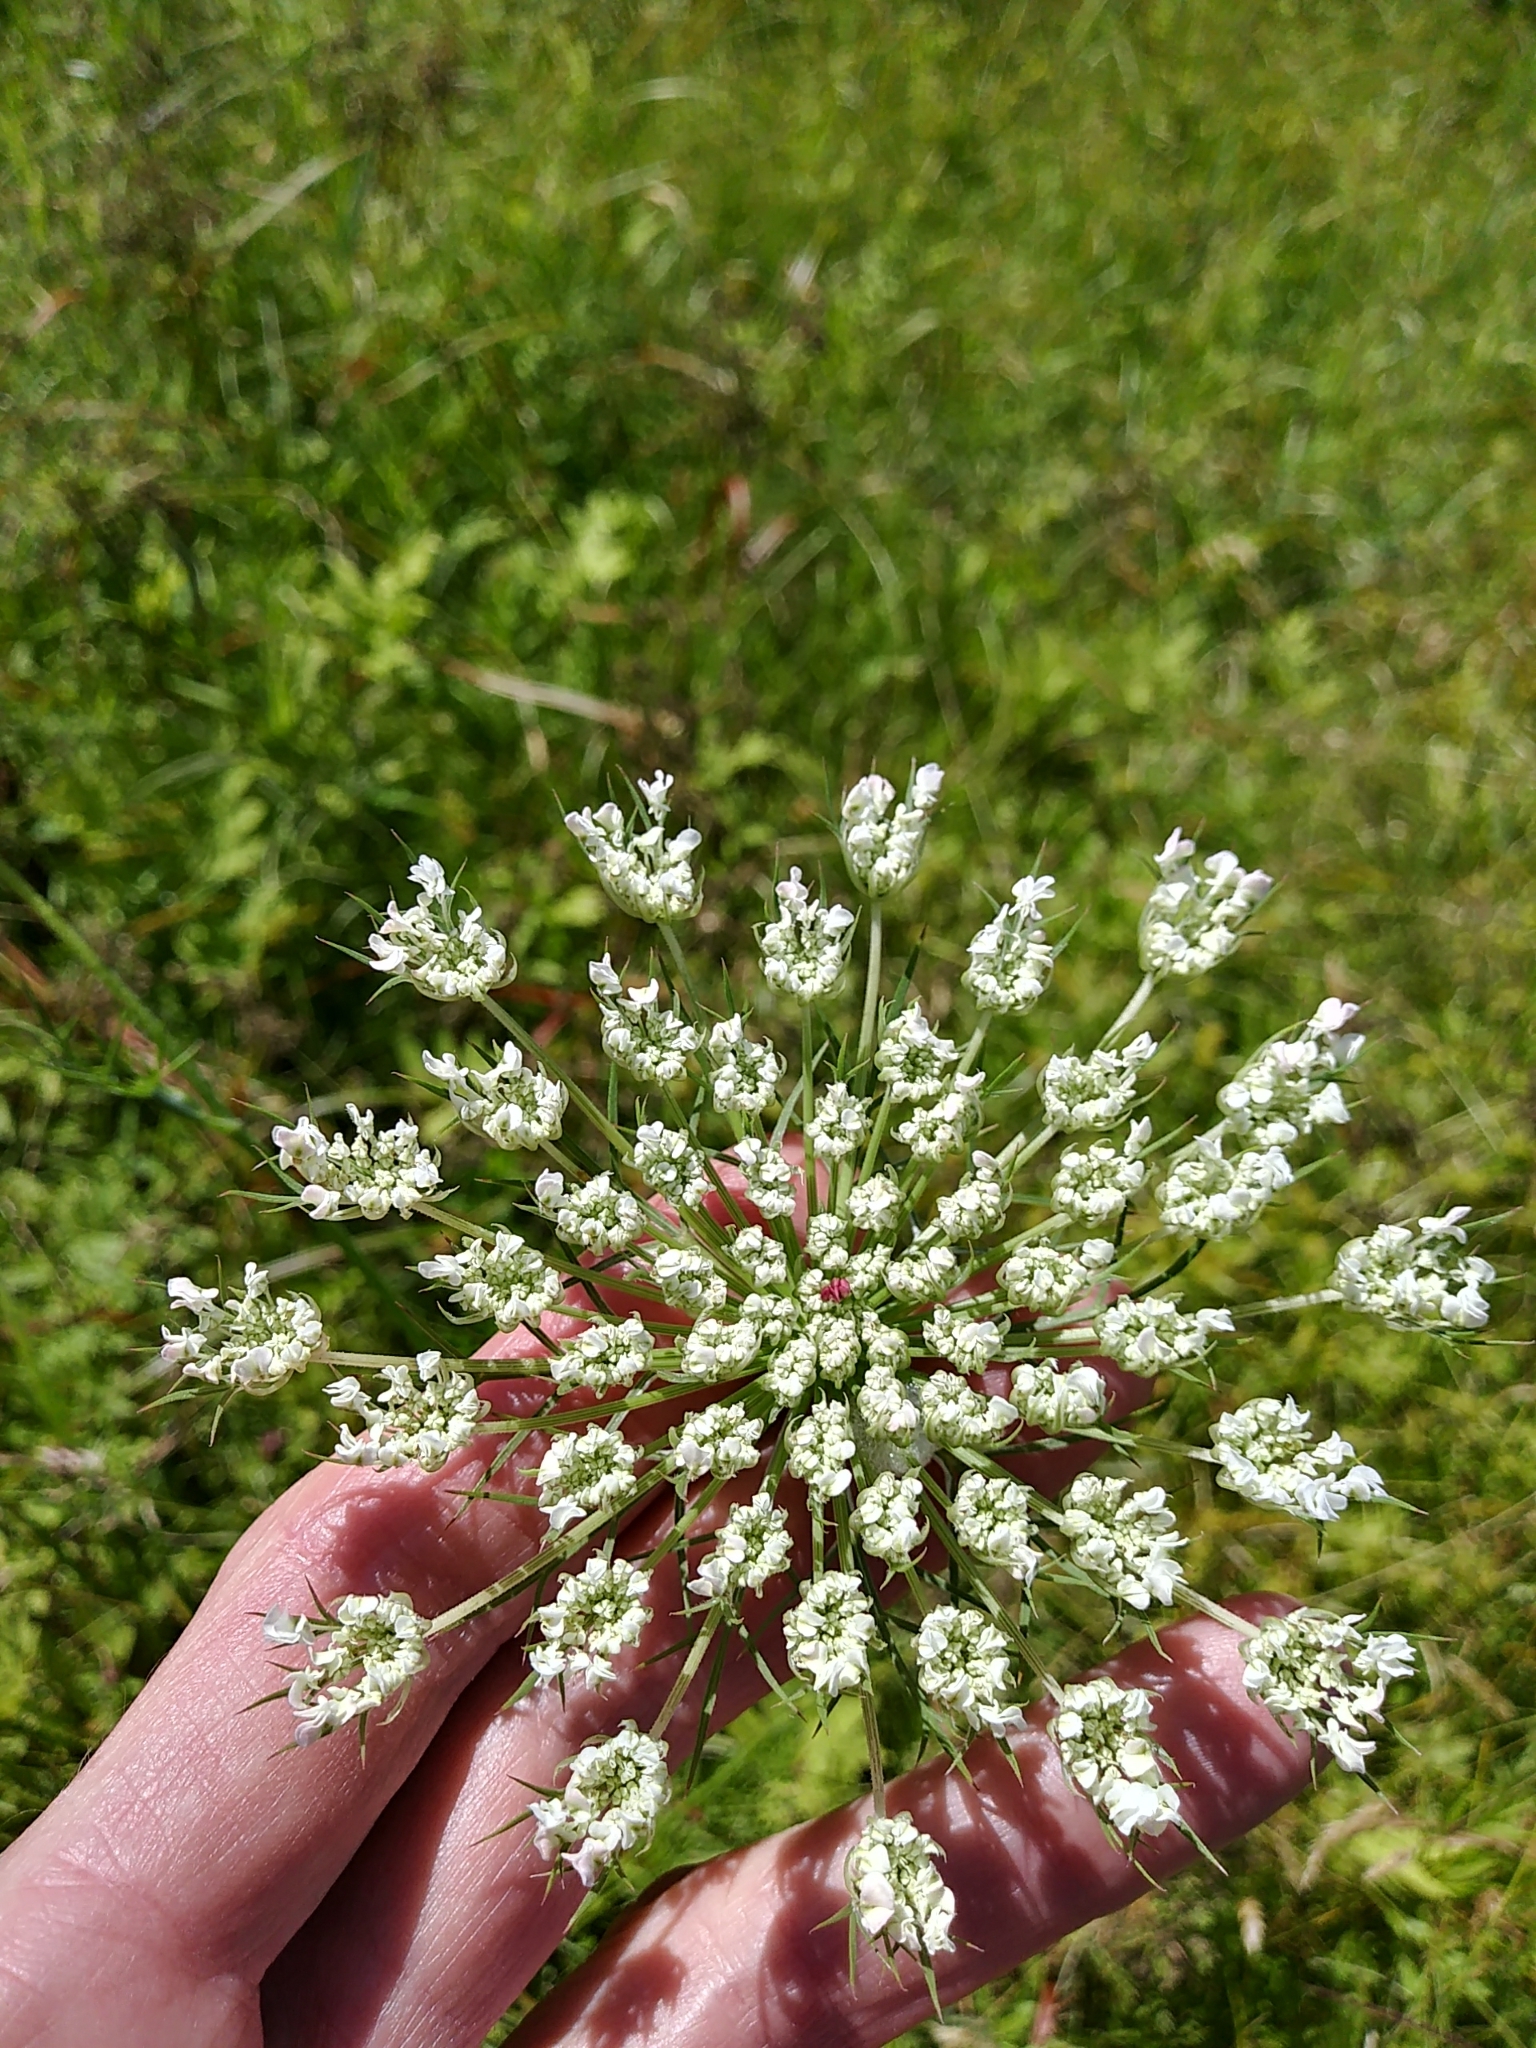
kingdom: Plantae
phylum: Tracheophyta
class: Magnoliopsida
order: Apiales
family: Apiaceae
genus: Daucus
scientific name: Daucus carota
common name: Wild carrot
